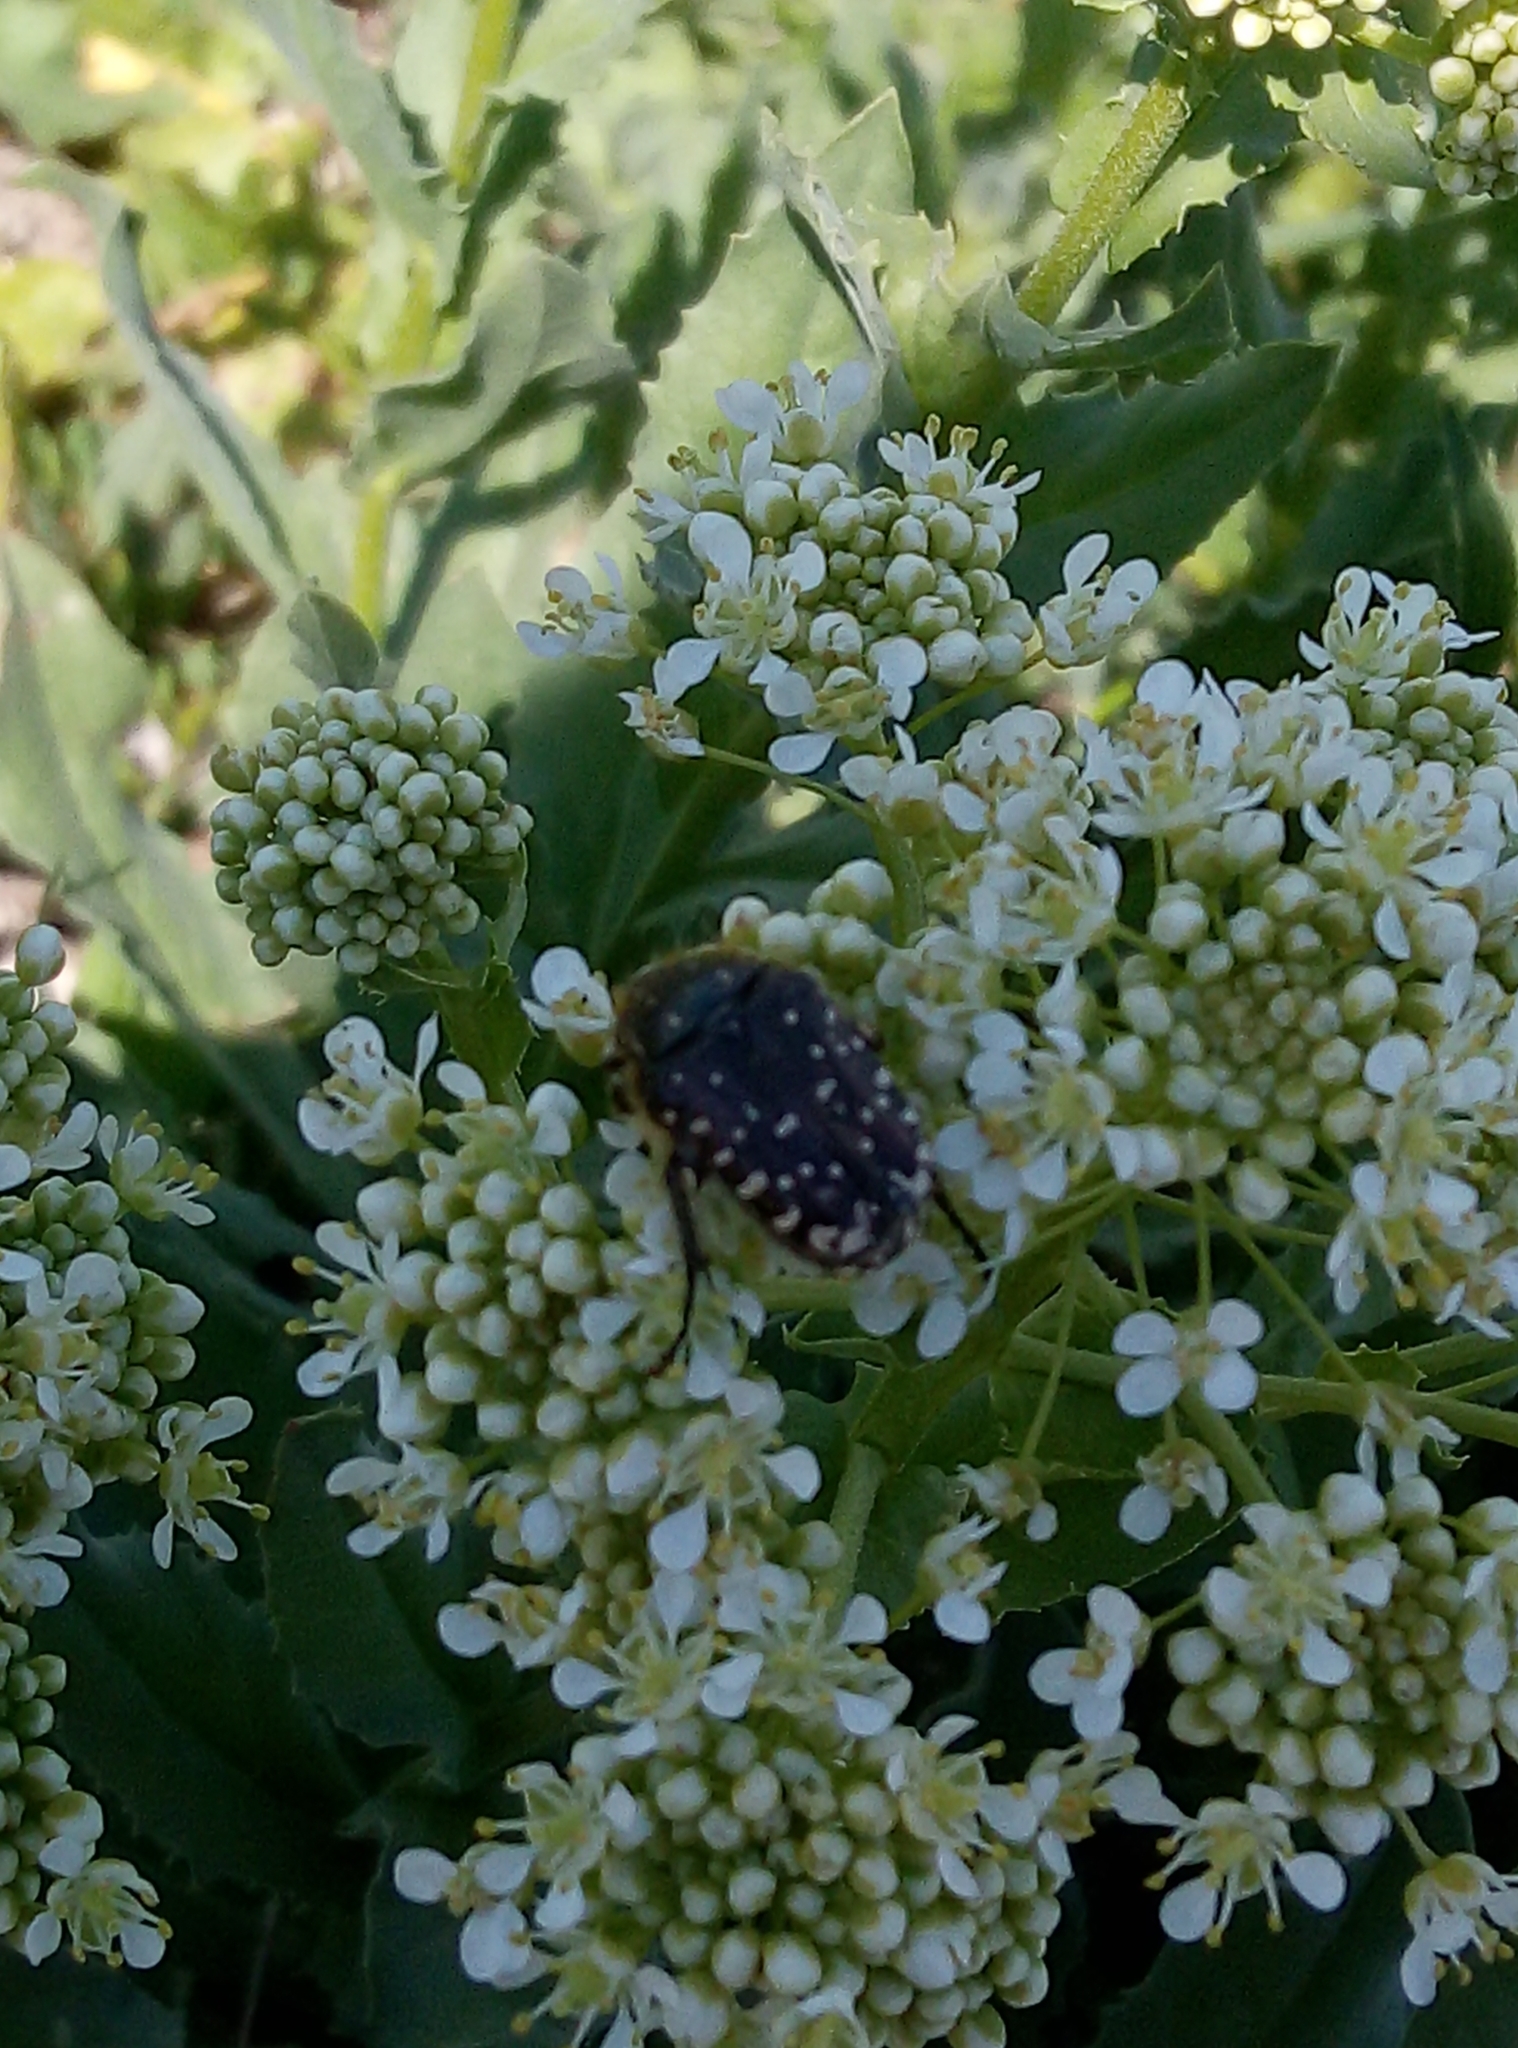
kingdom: Animalia
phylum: Arthropoda
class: Insecta
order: Coleoptera
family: Scarabaeidae
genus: Oxythyrea
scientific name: Oxythyrea funesta
